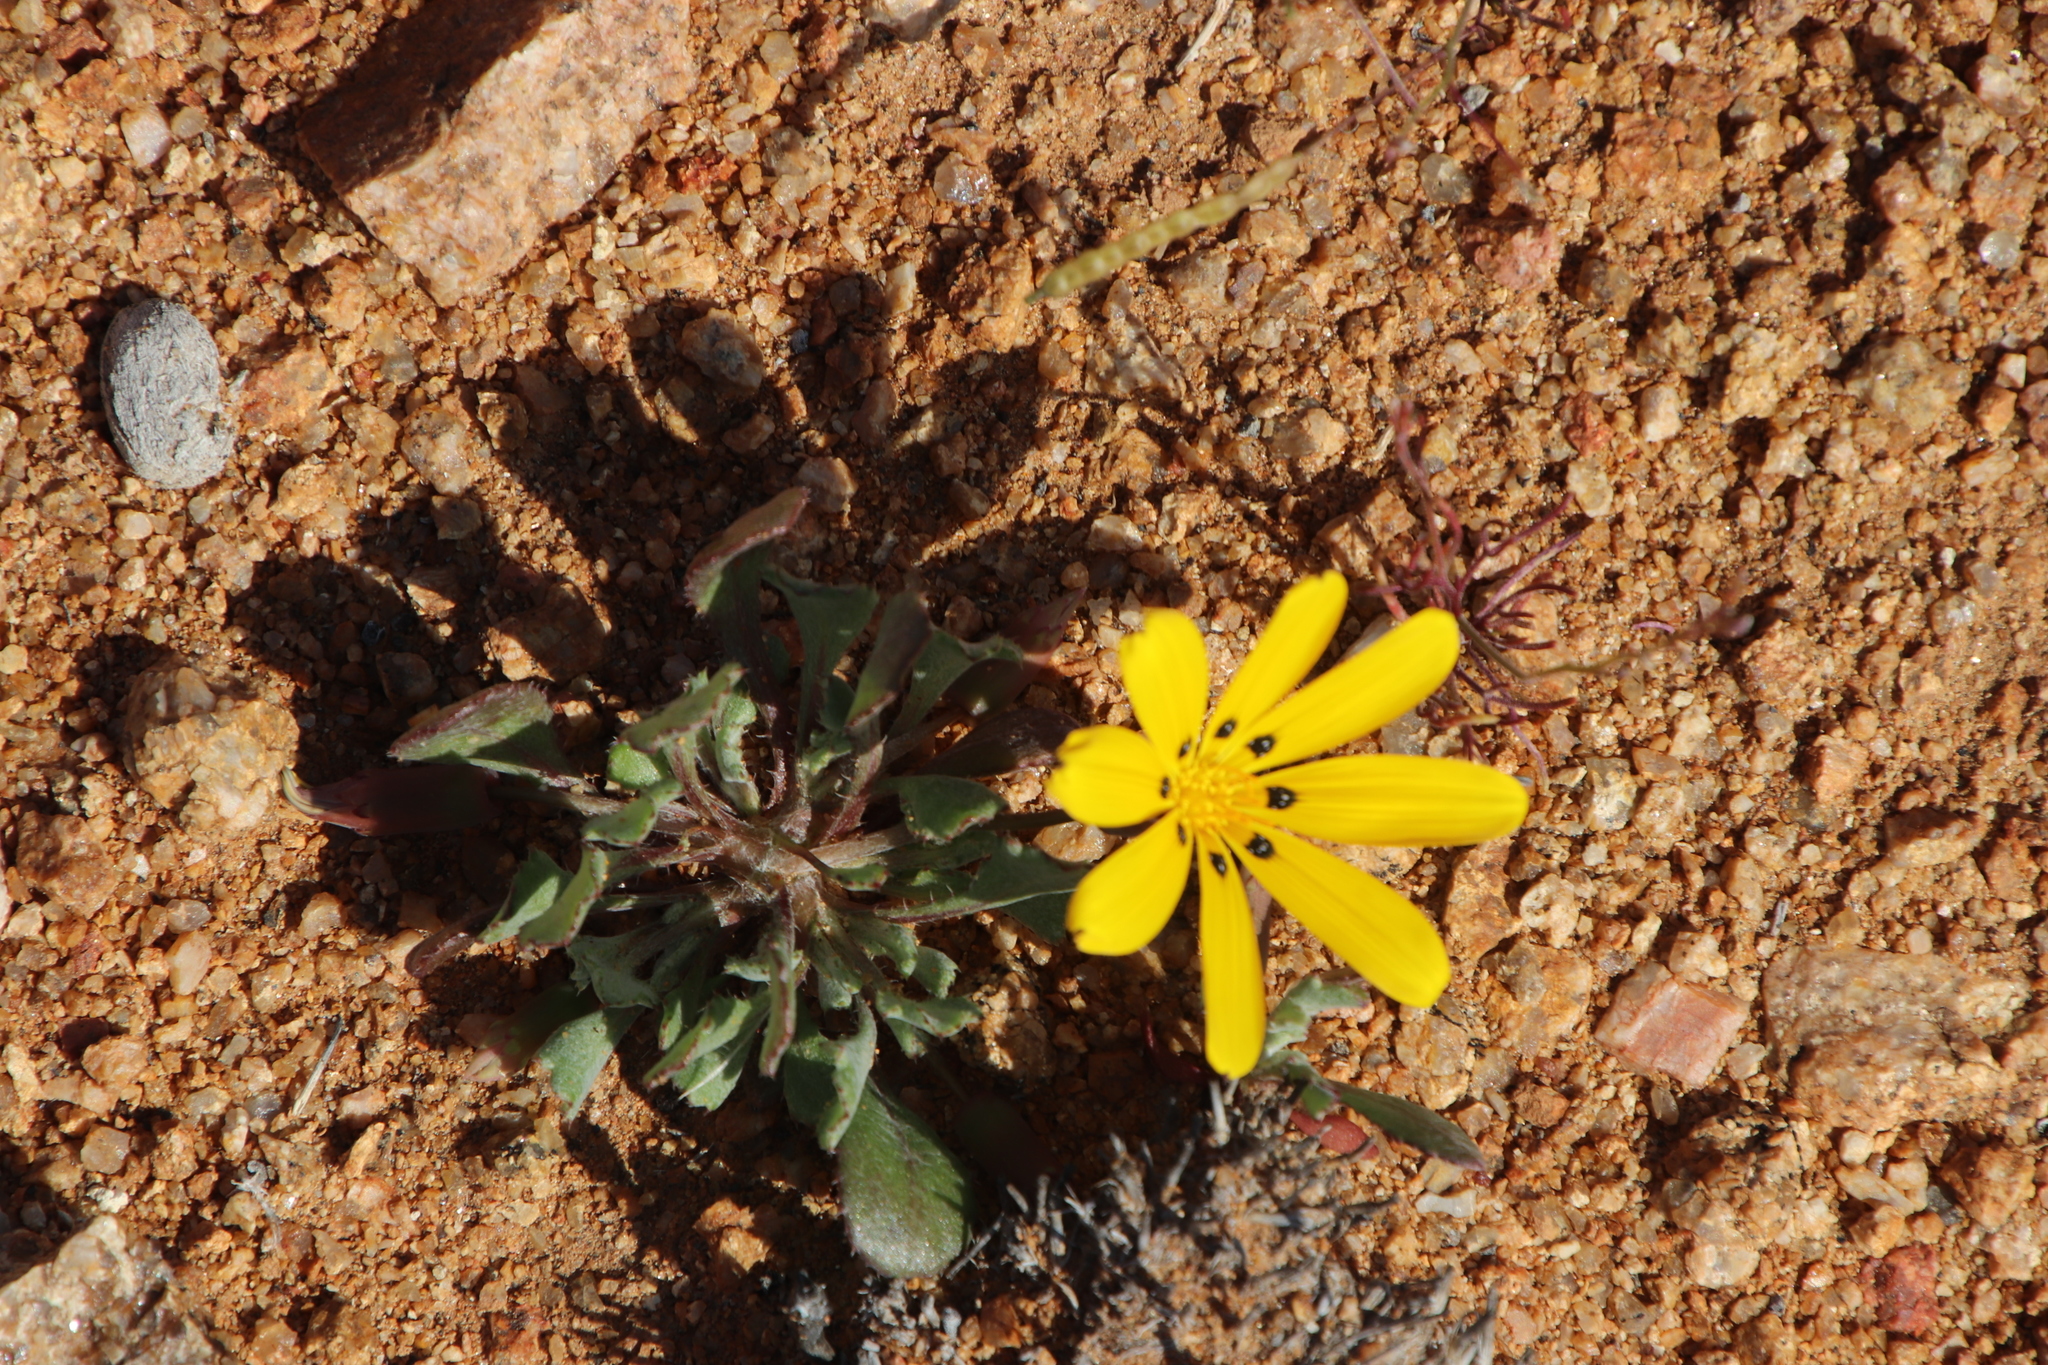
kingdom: Plantae
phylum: Tracheophyta
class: Magnoliopsida
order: Asterales
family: Asteraceae
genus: Gazania
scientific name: Gazania lichtensteinii
